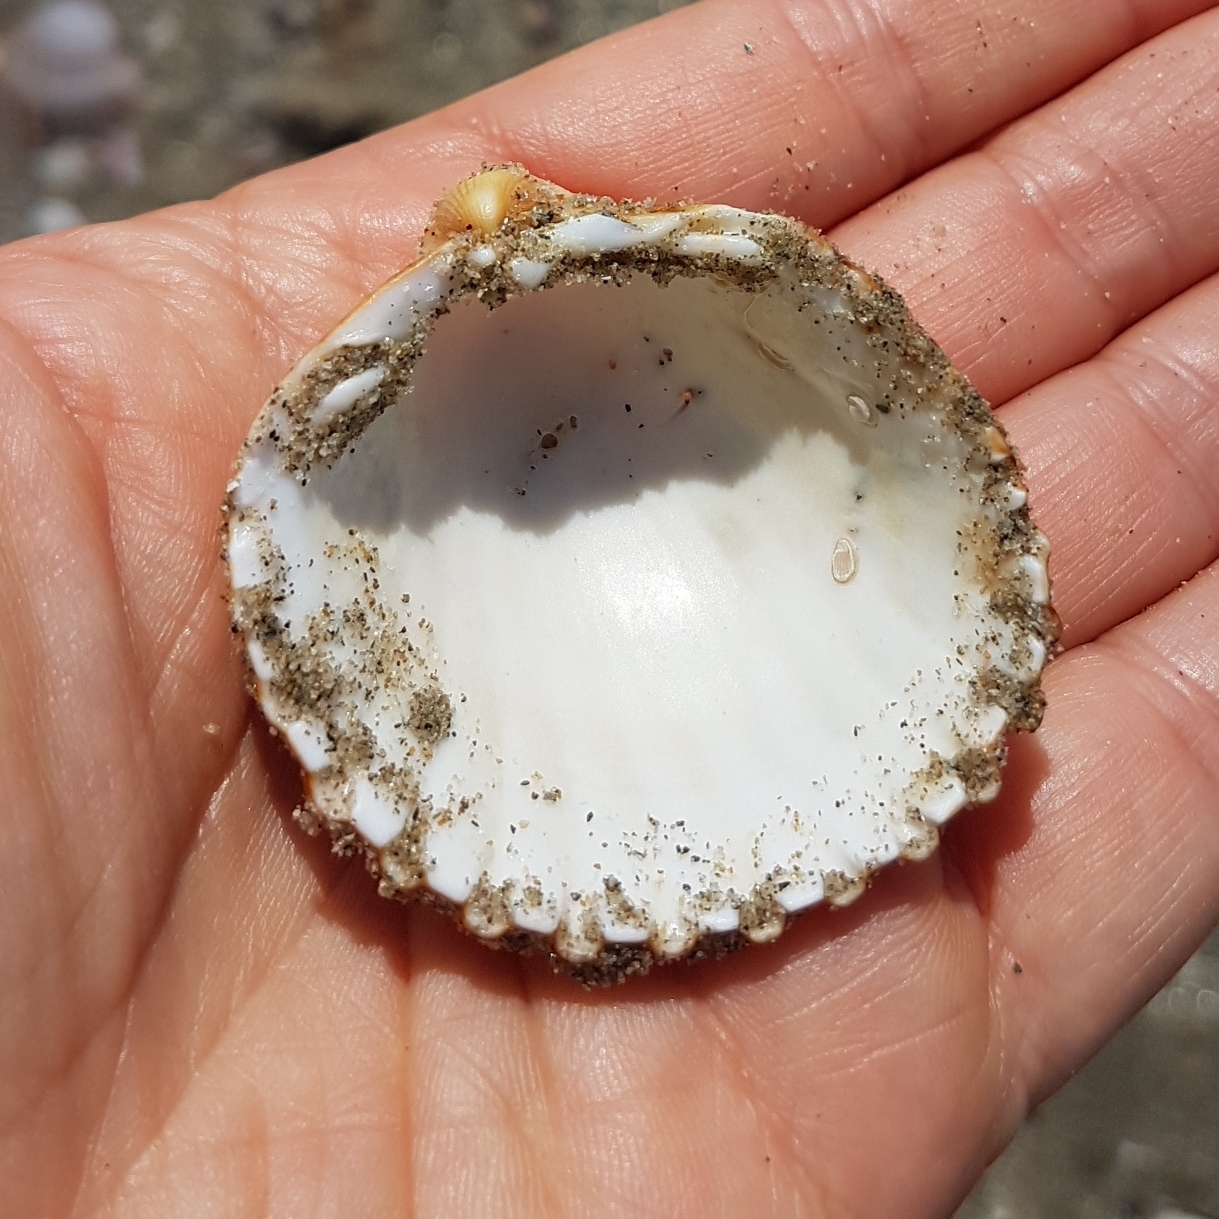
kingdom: Animalia
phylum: Mollusca
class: Bivalvia
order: Cardiida
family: Cardiidae
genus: Acanthocardia
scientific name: Acanthocardia tuberculata
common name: Rough cockle
